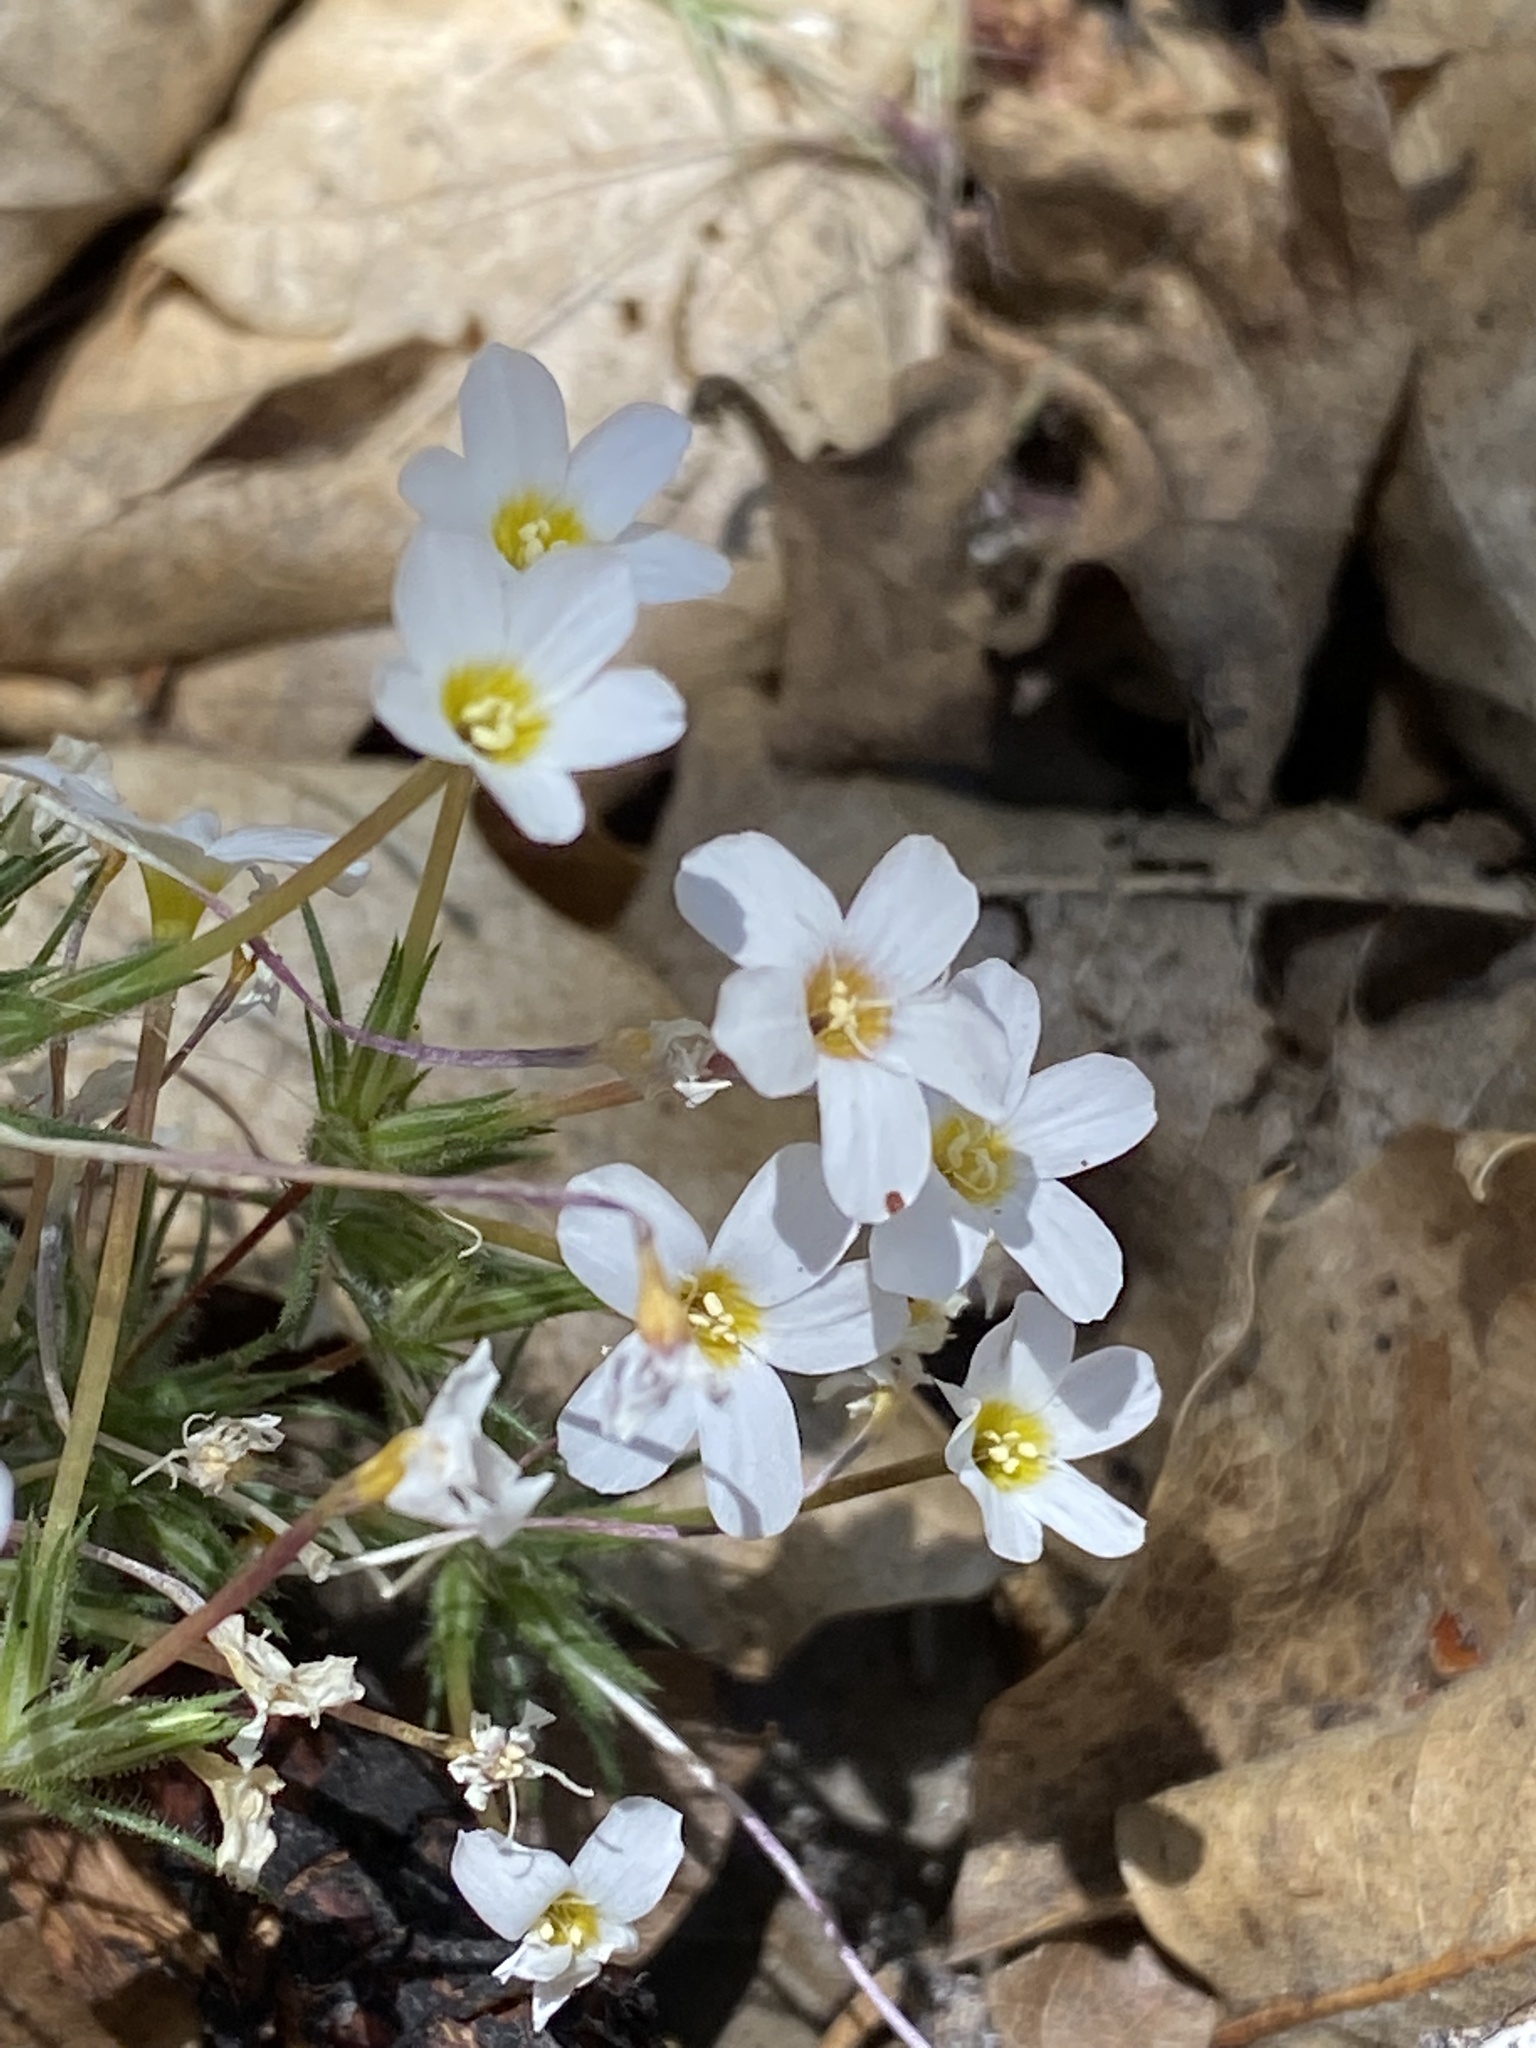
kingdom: Plantae
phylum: Tracheophyta
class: Magnoliopsida
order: Ericales
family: Polemoniaceae
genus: Leptosiphon
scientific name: Leptosiphon breviculus
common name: Mojave linanthus
